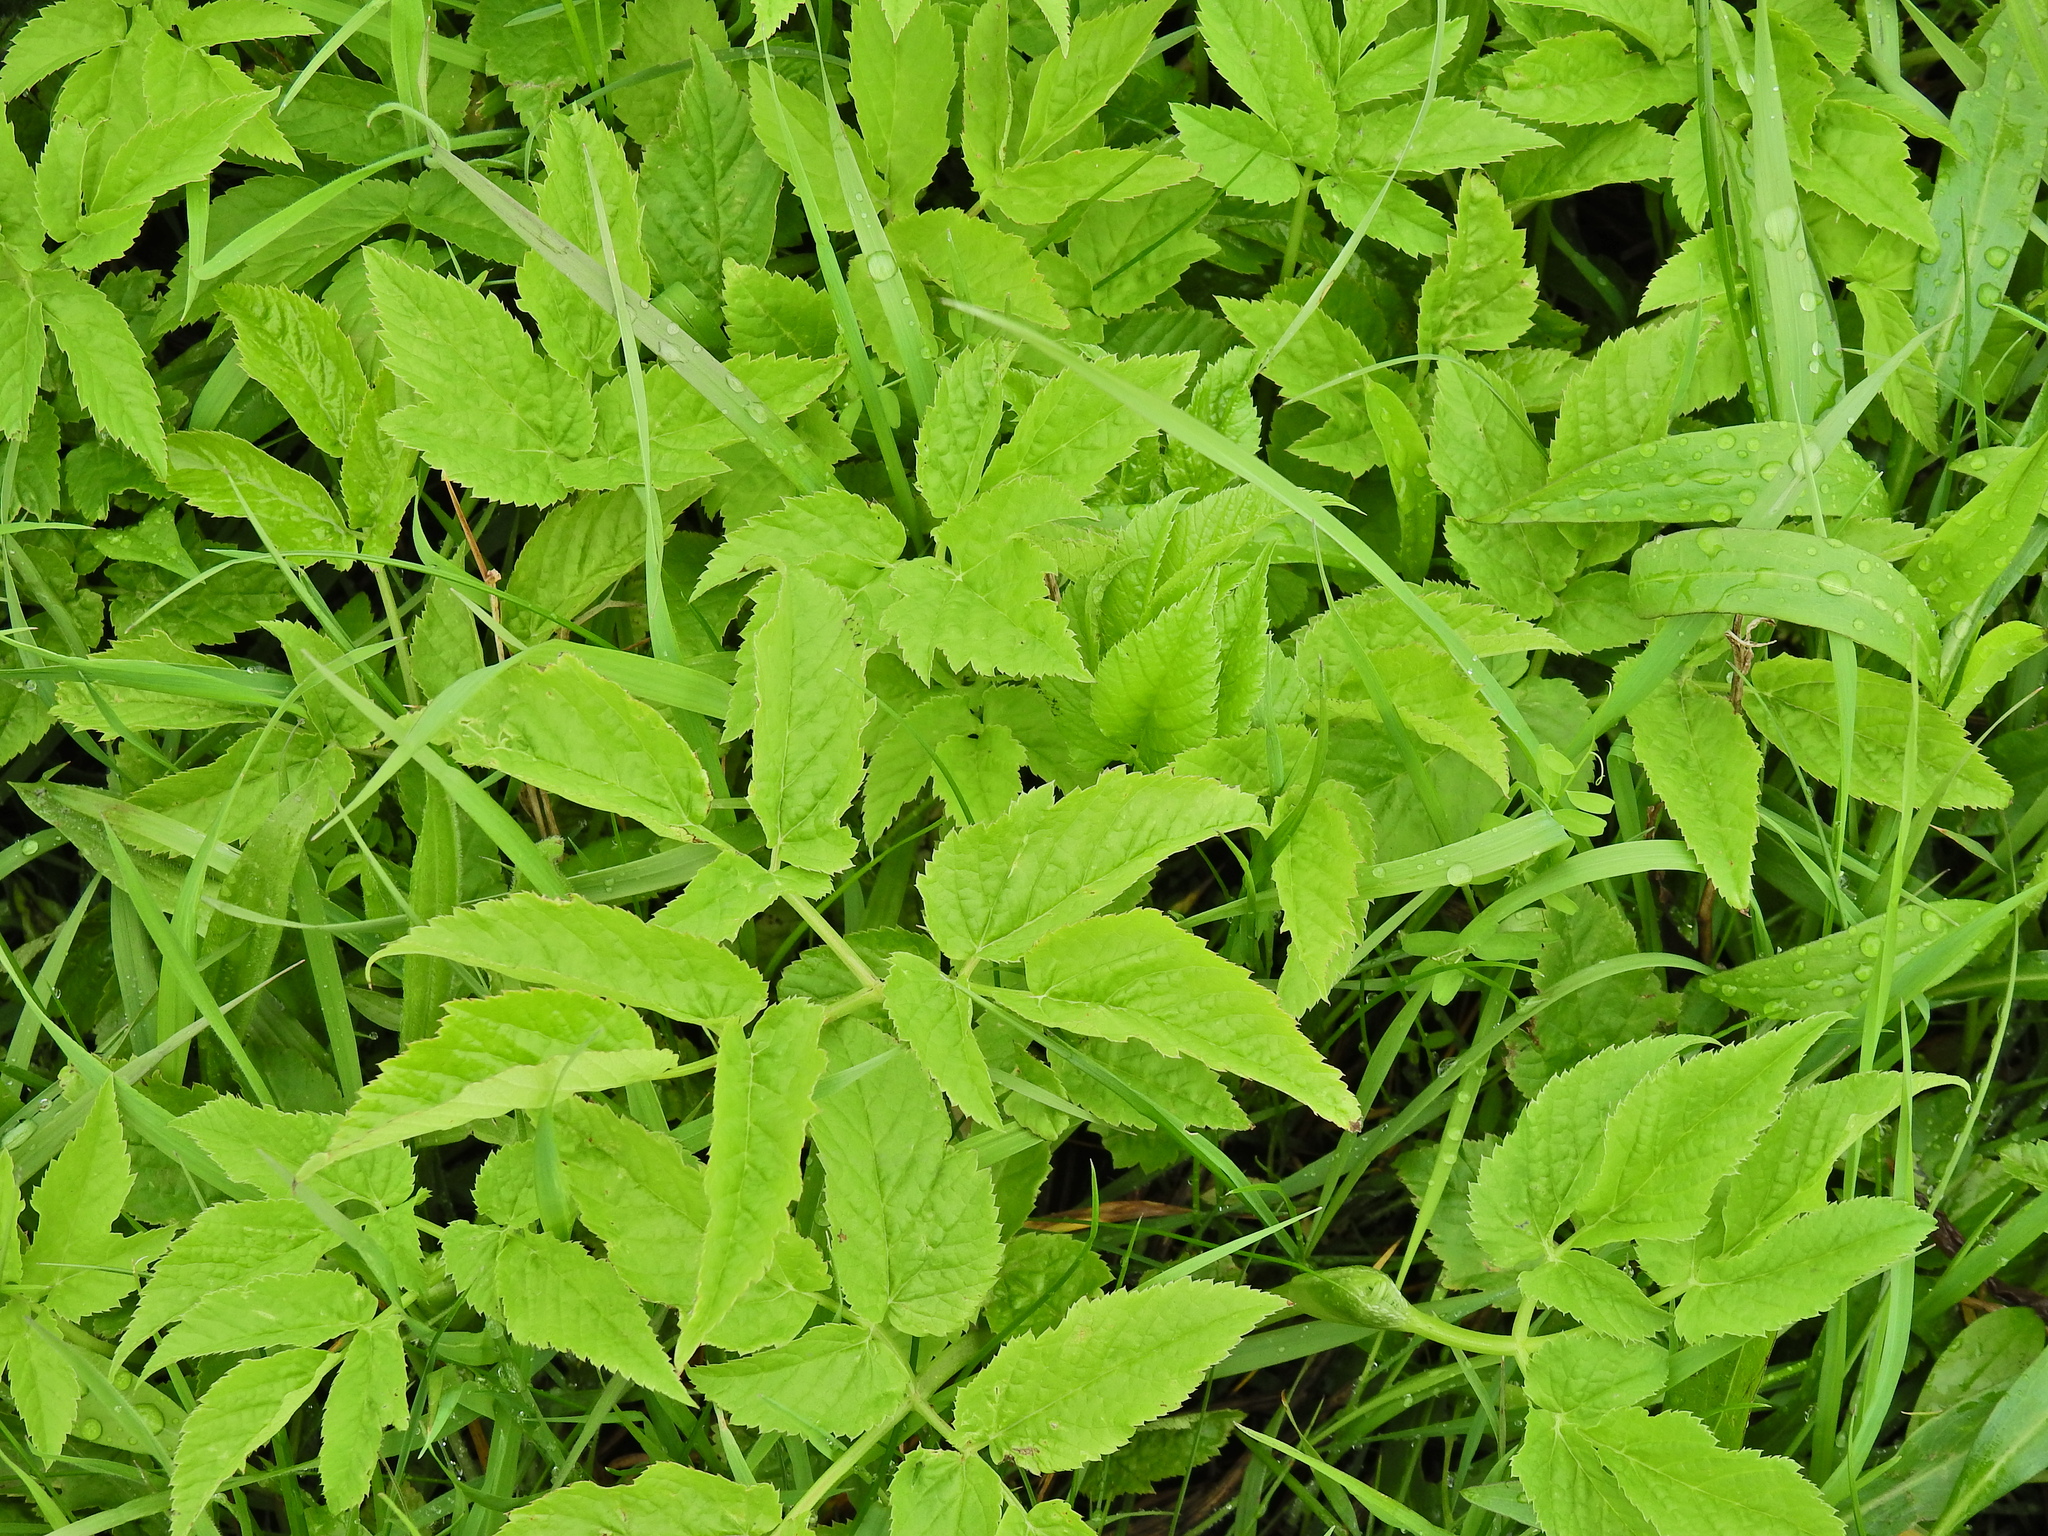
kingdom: Plantae
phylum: Tracheophyta
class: Magnoliopsida
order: Apiales
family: Apiaceae
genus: Aegopodium
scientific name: Aegopodium podagraria
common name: Ground-elder
